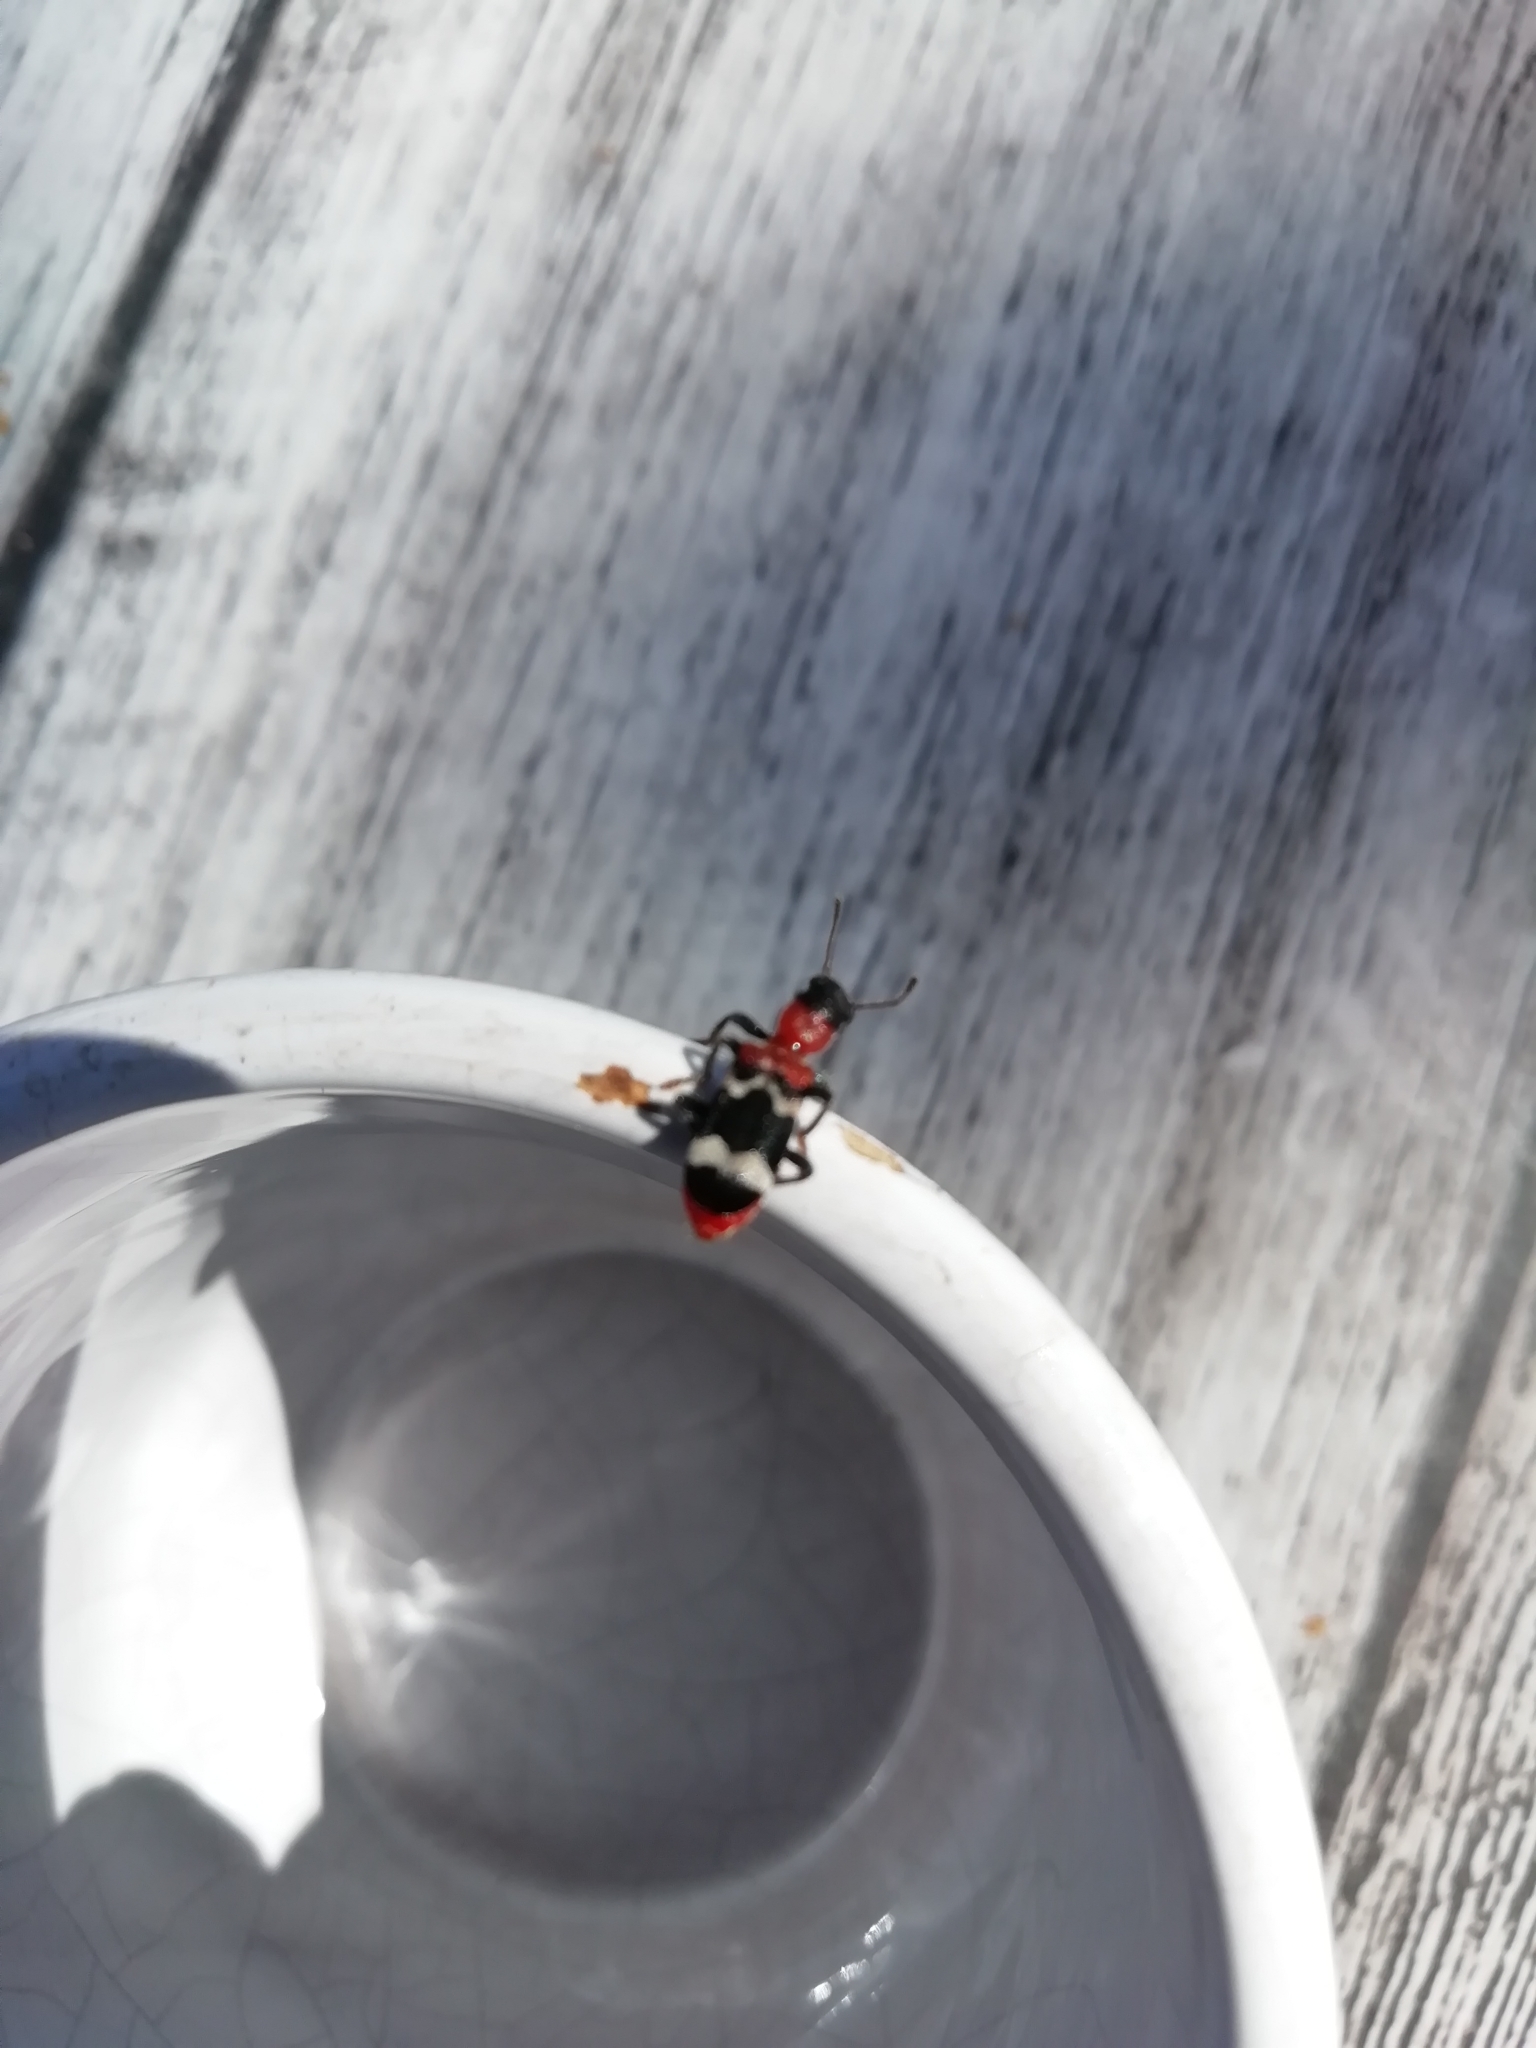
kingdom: Animalia
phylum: Arthropoda
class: Insecta
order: Coleoptera
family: Cleridae
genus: Thanasimus
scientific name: Thanasimus formicarius
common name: Ant beetle
